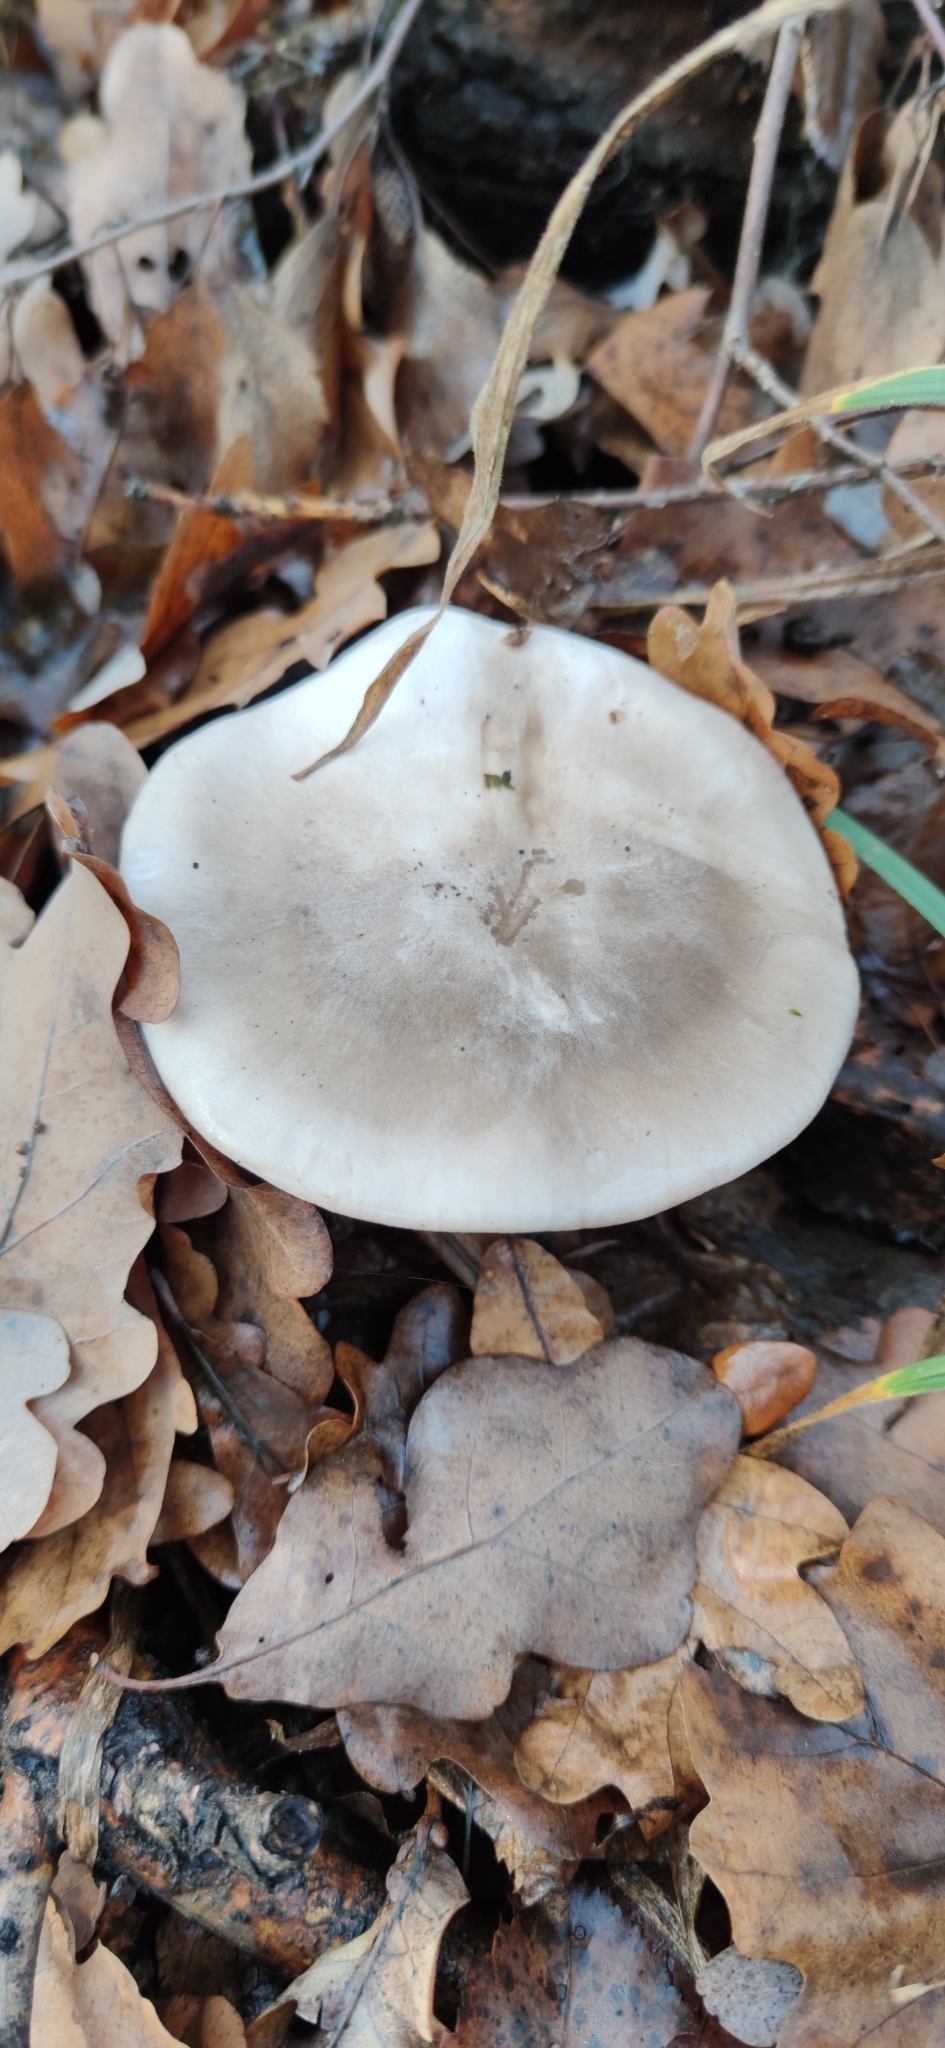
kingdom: Fungi
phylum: Basidiomycota
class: Agaricomycetes
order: Agaricales
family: Tricholomataceae
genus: Clitocybe
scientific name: Clitocybe nebularis
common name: Clouded agaric
